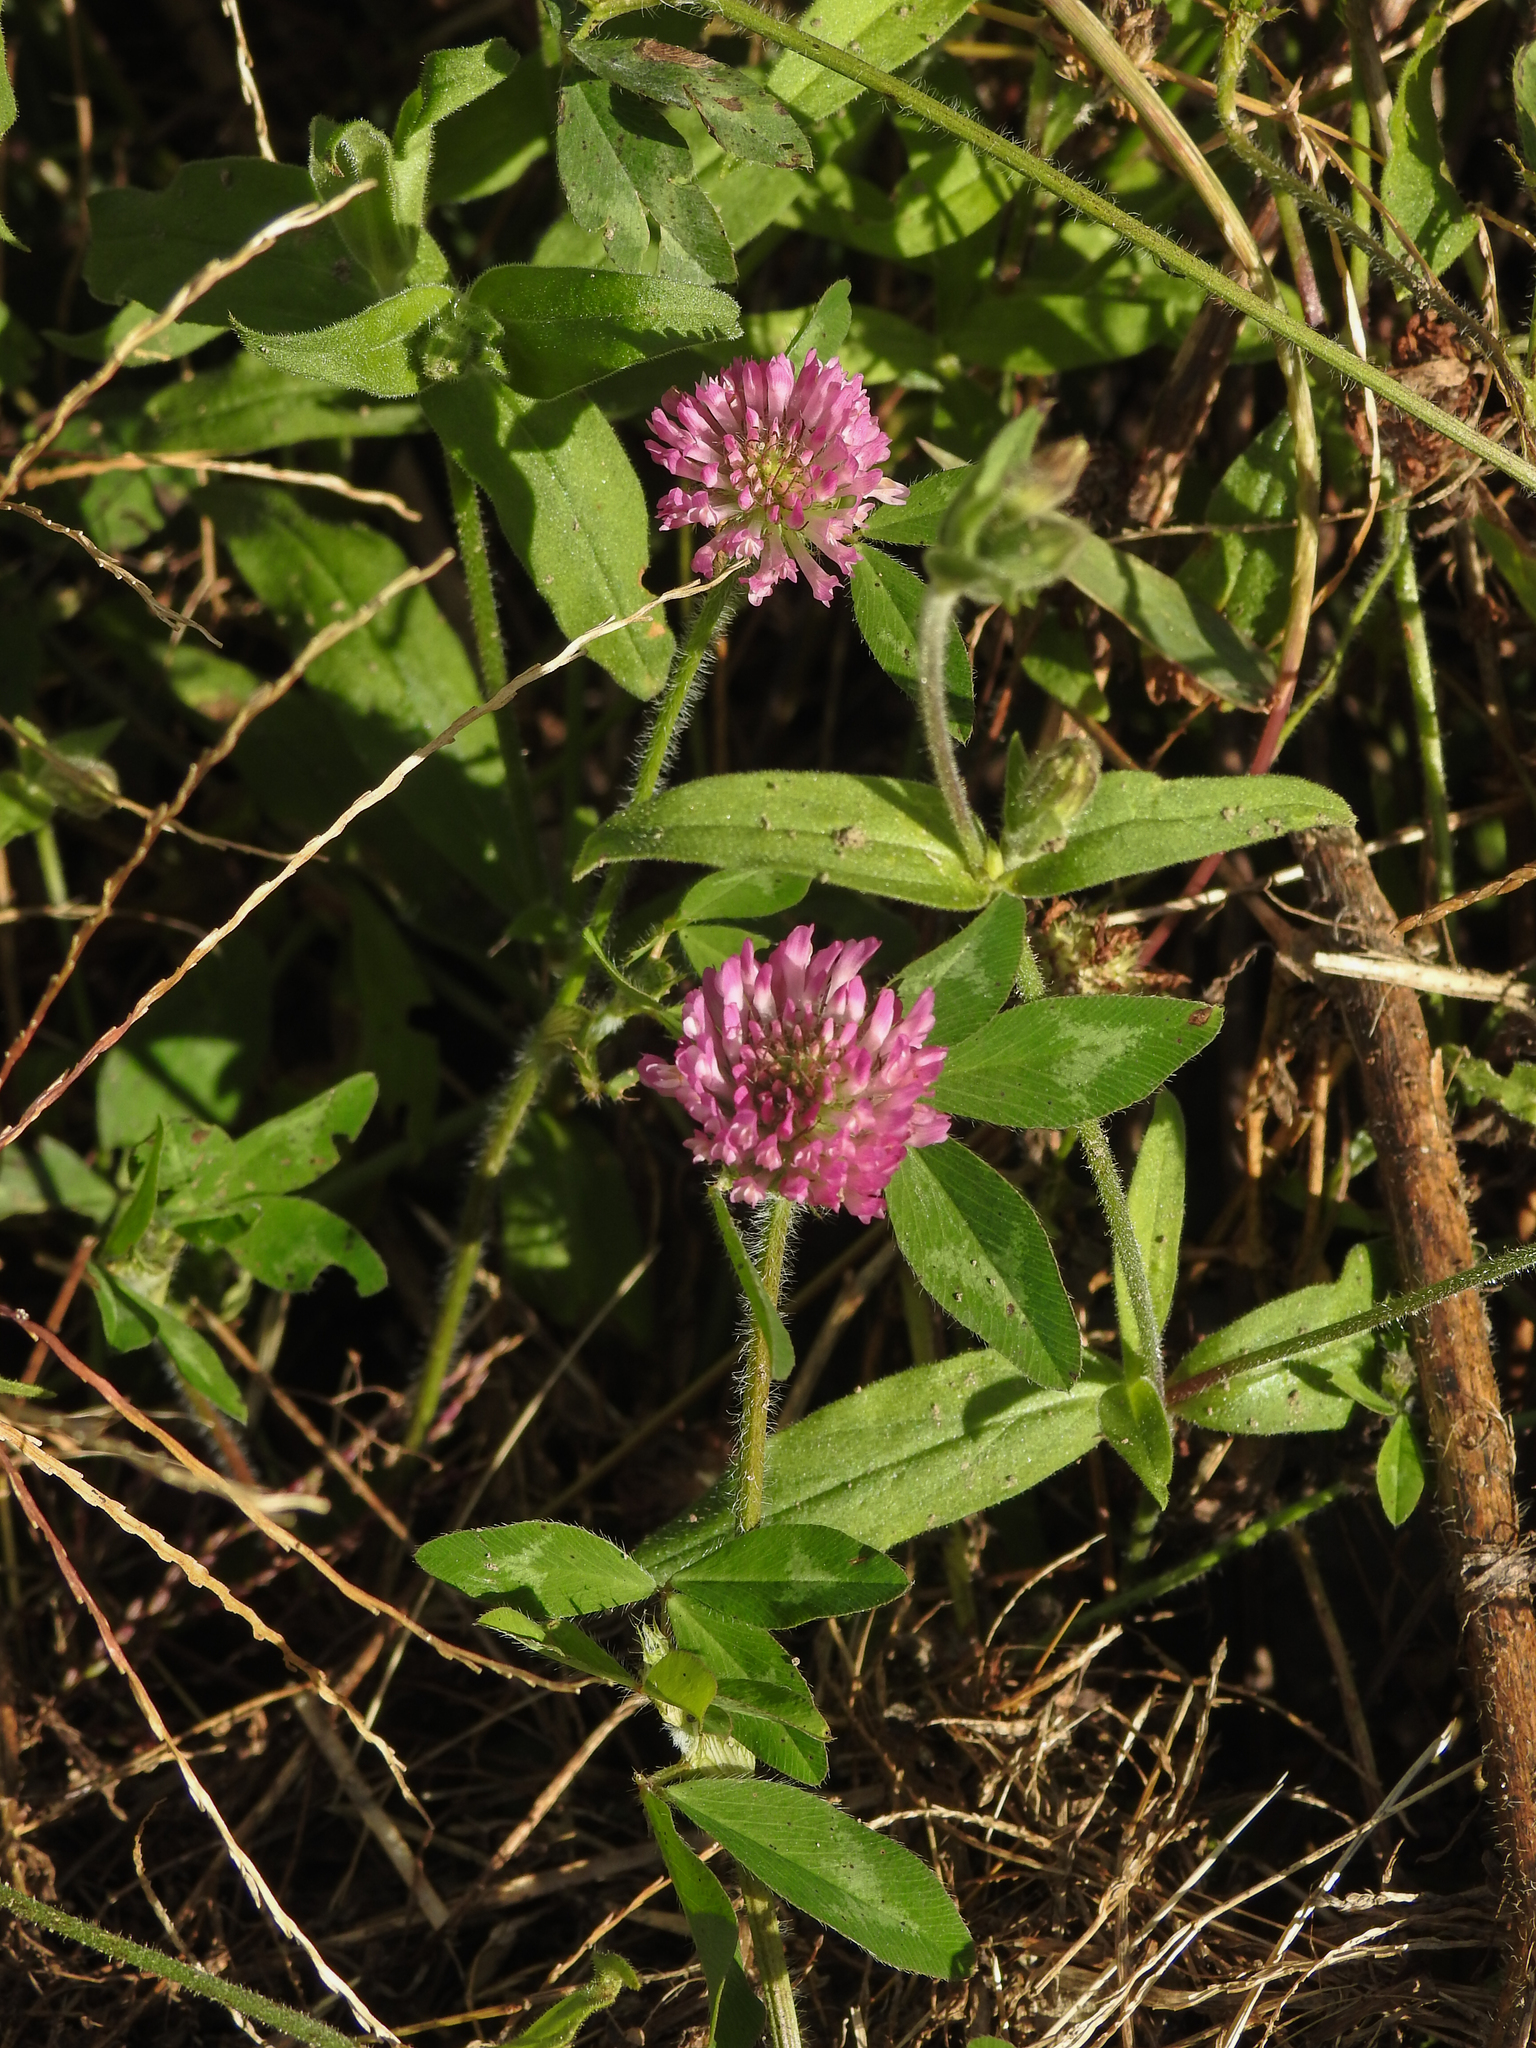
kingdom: Plantae
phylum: Tracheophyta
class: Magnoliopsida
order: Fabales
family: Fabaceae
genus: Trifolium
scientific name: Trifolium pratense
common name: Red clover
